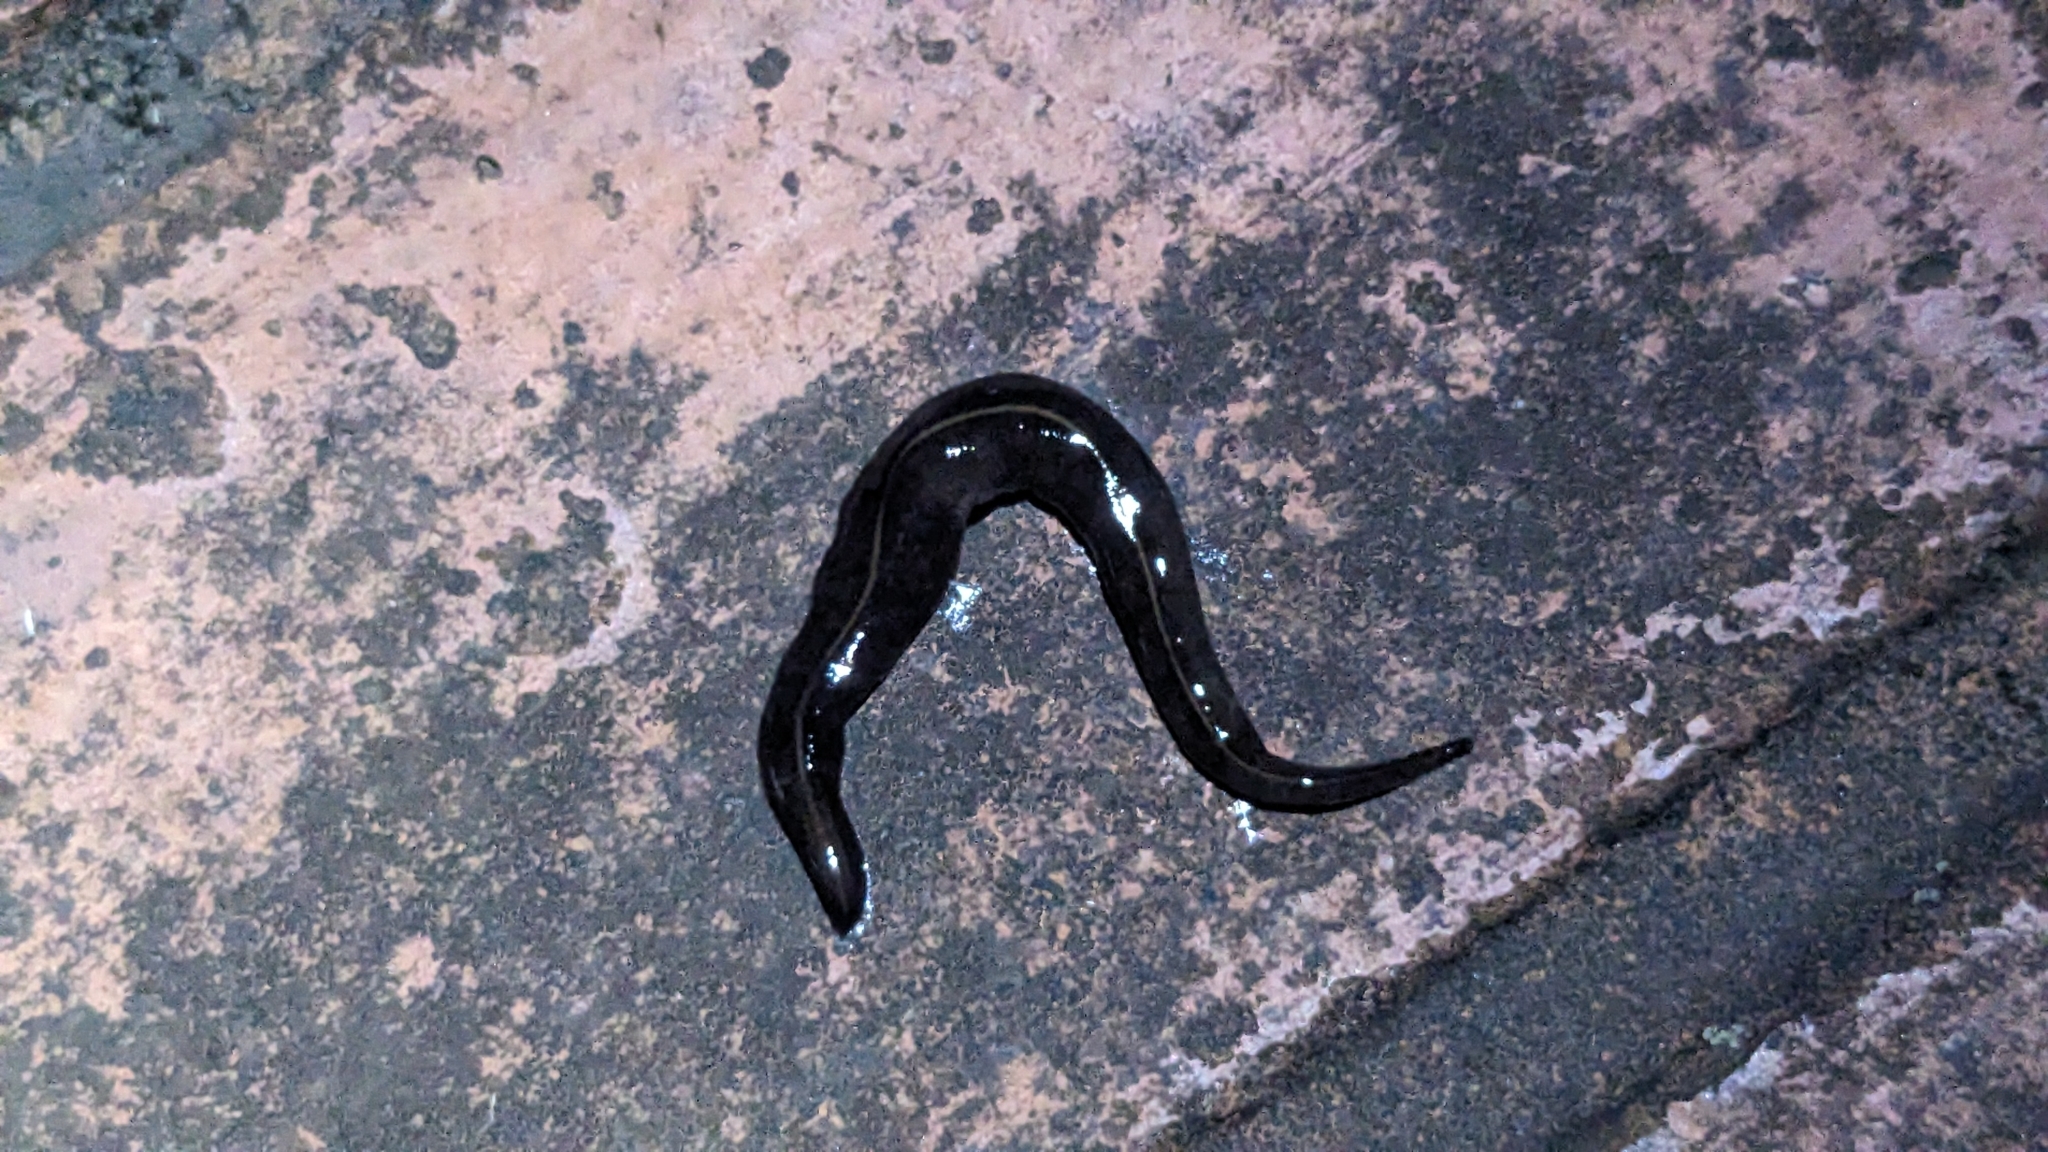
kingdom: Animalia
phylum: Platyhelminthes
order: Tricladida
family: Geoplanidae
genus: Platydemus
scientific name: Platydemus manokwari
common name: New guinea flatworm
